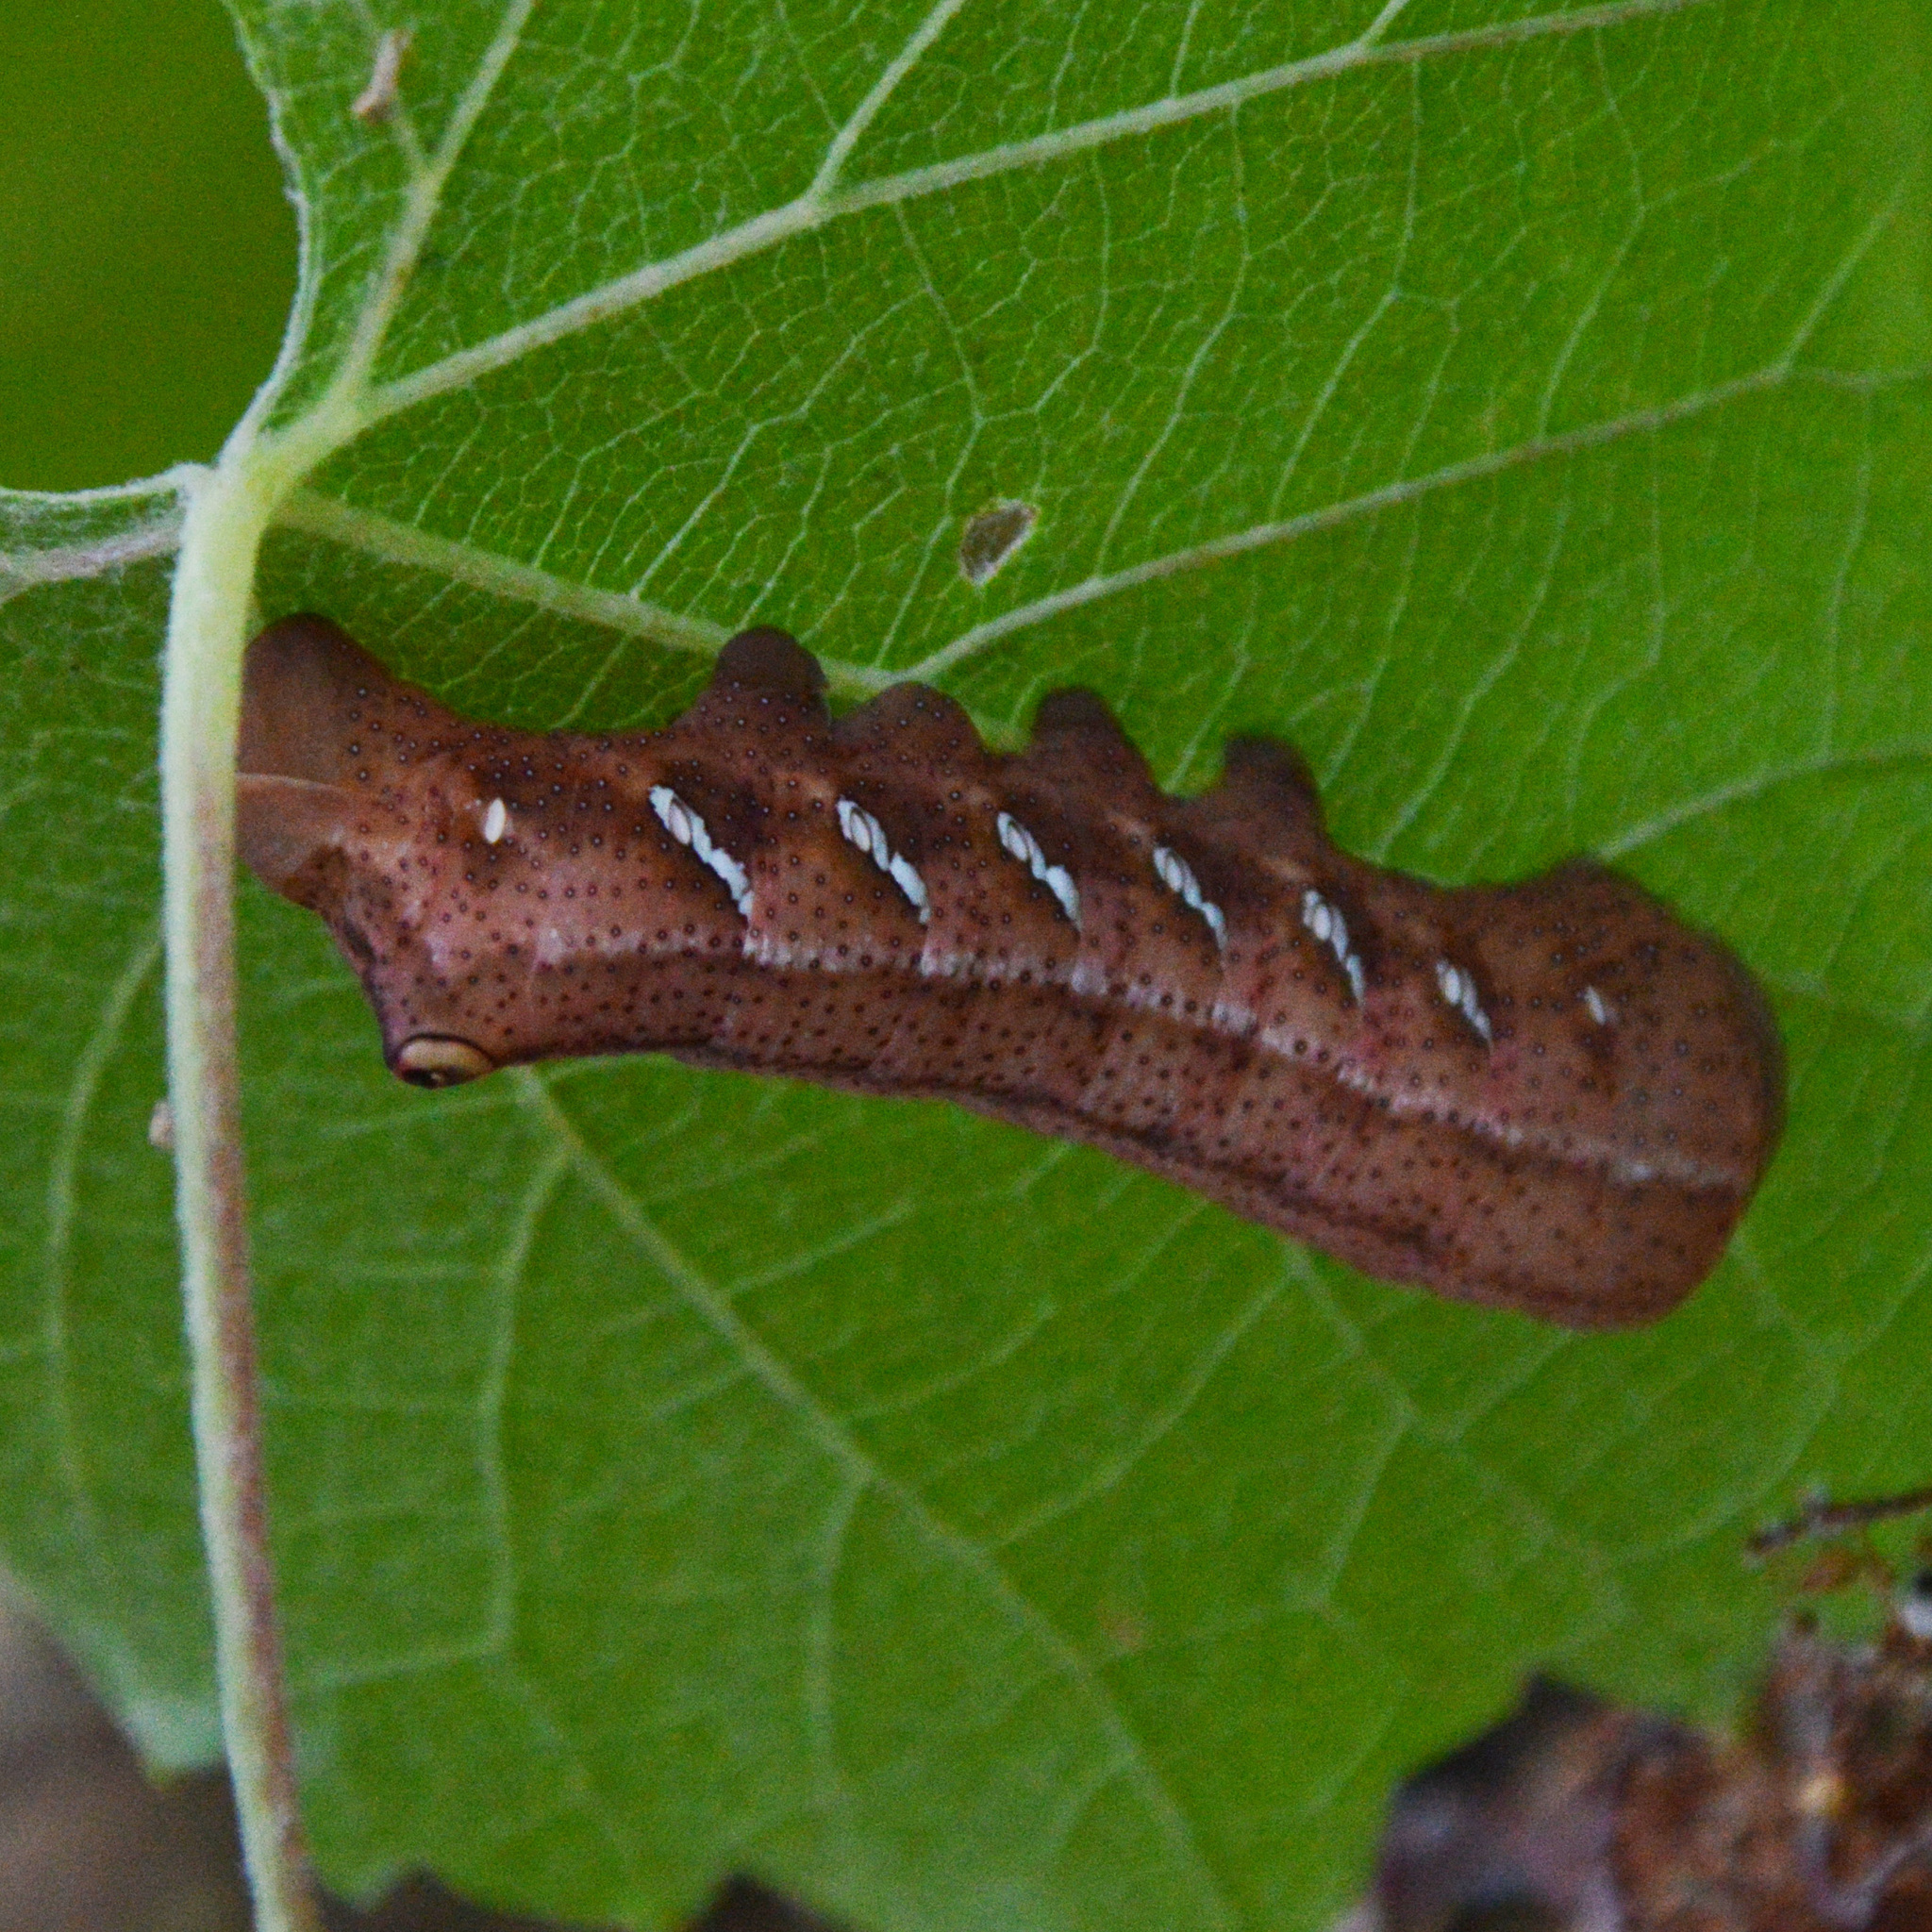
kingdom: Animalia
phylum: Arthropoda
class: Insecta
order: Lepidoptera
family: Sphingidae
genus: Eumorpha
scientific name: Eumorpha achemon
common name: Achemon sphinx
